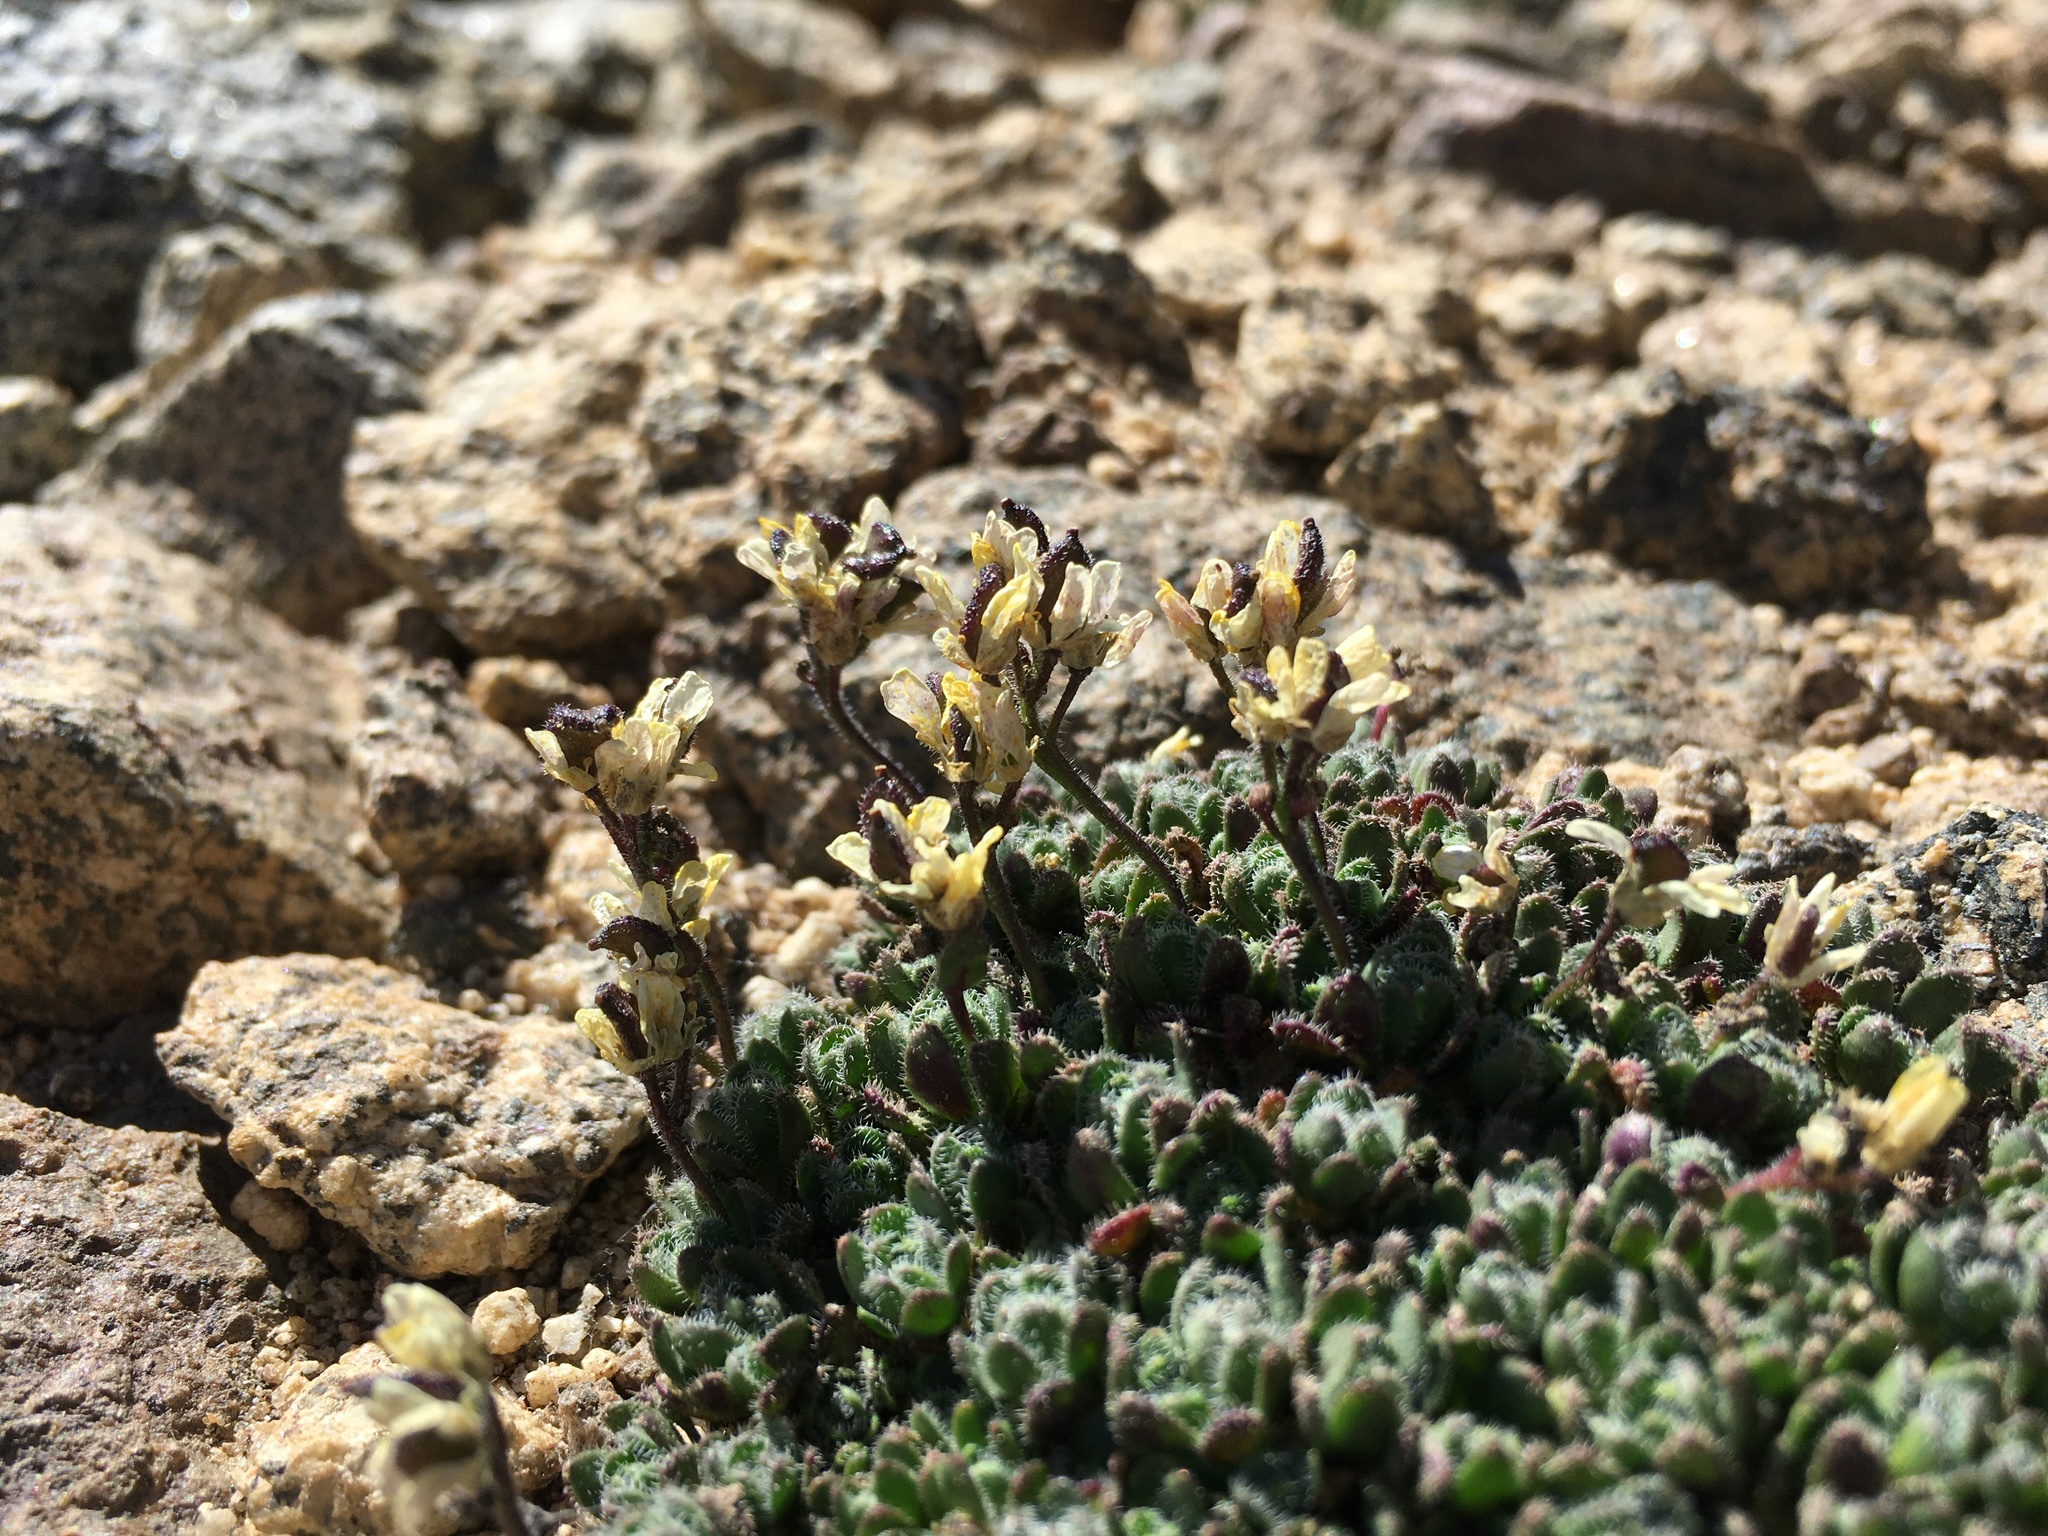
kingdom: Plantae
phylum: Tracheophyta
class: Magnoliopsida
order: Brassicales
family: Brassicaceae
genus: Draba
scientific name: Draba lemmonii
